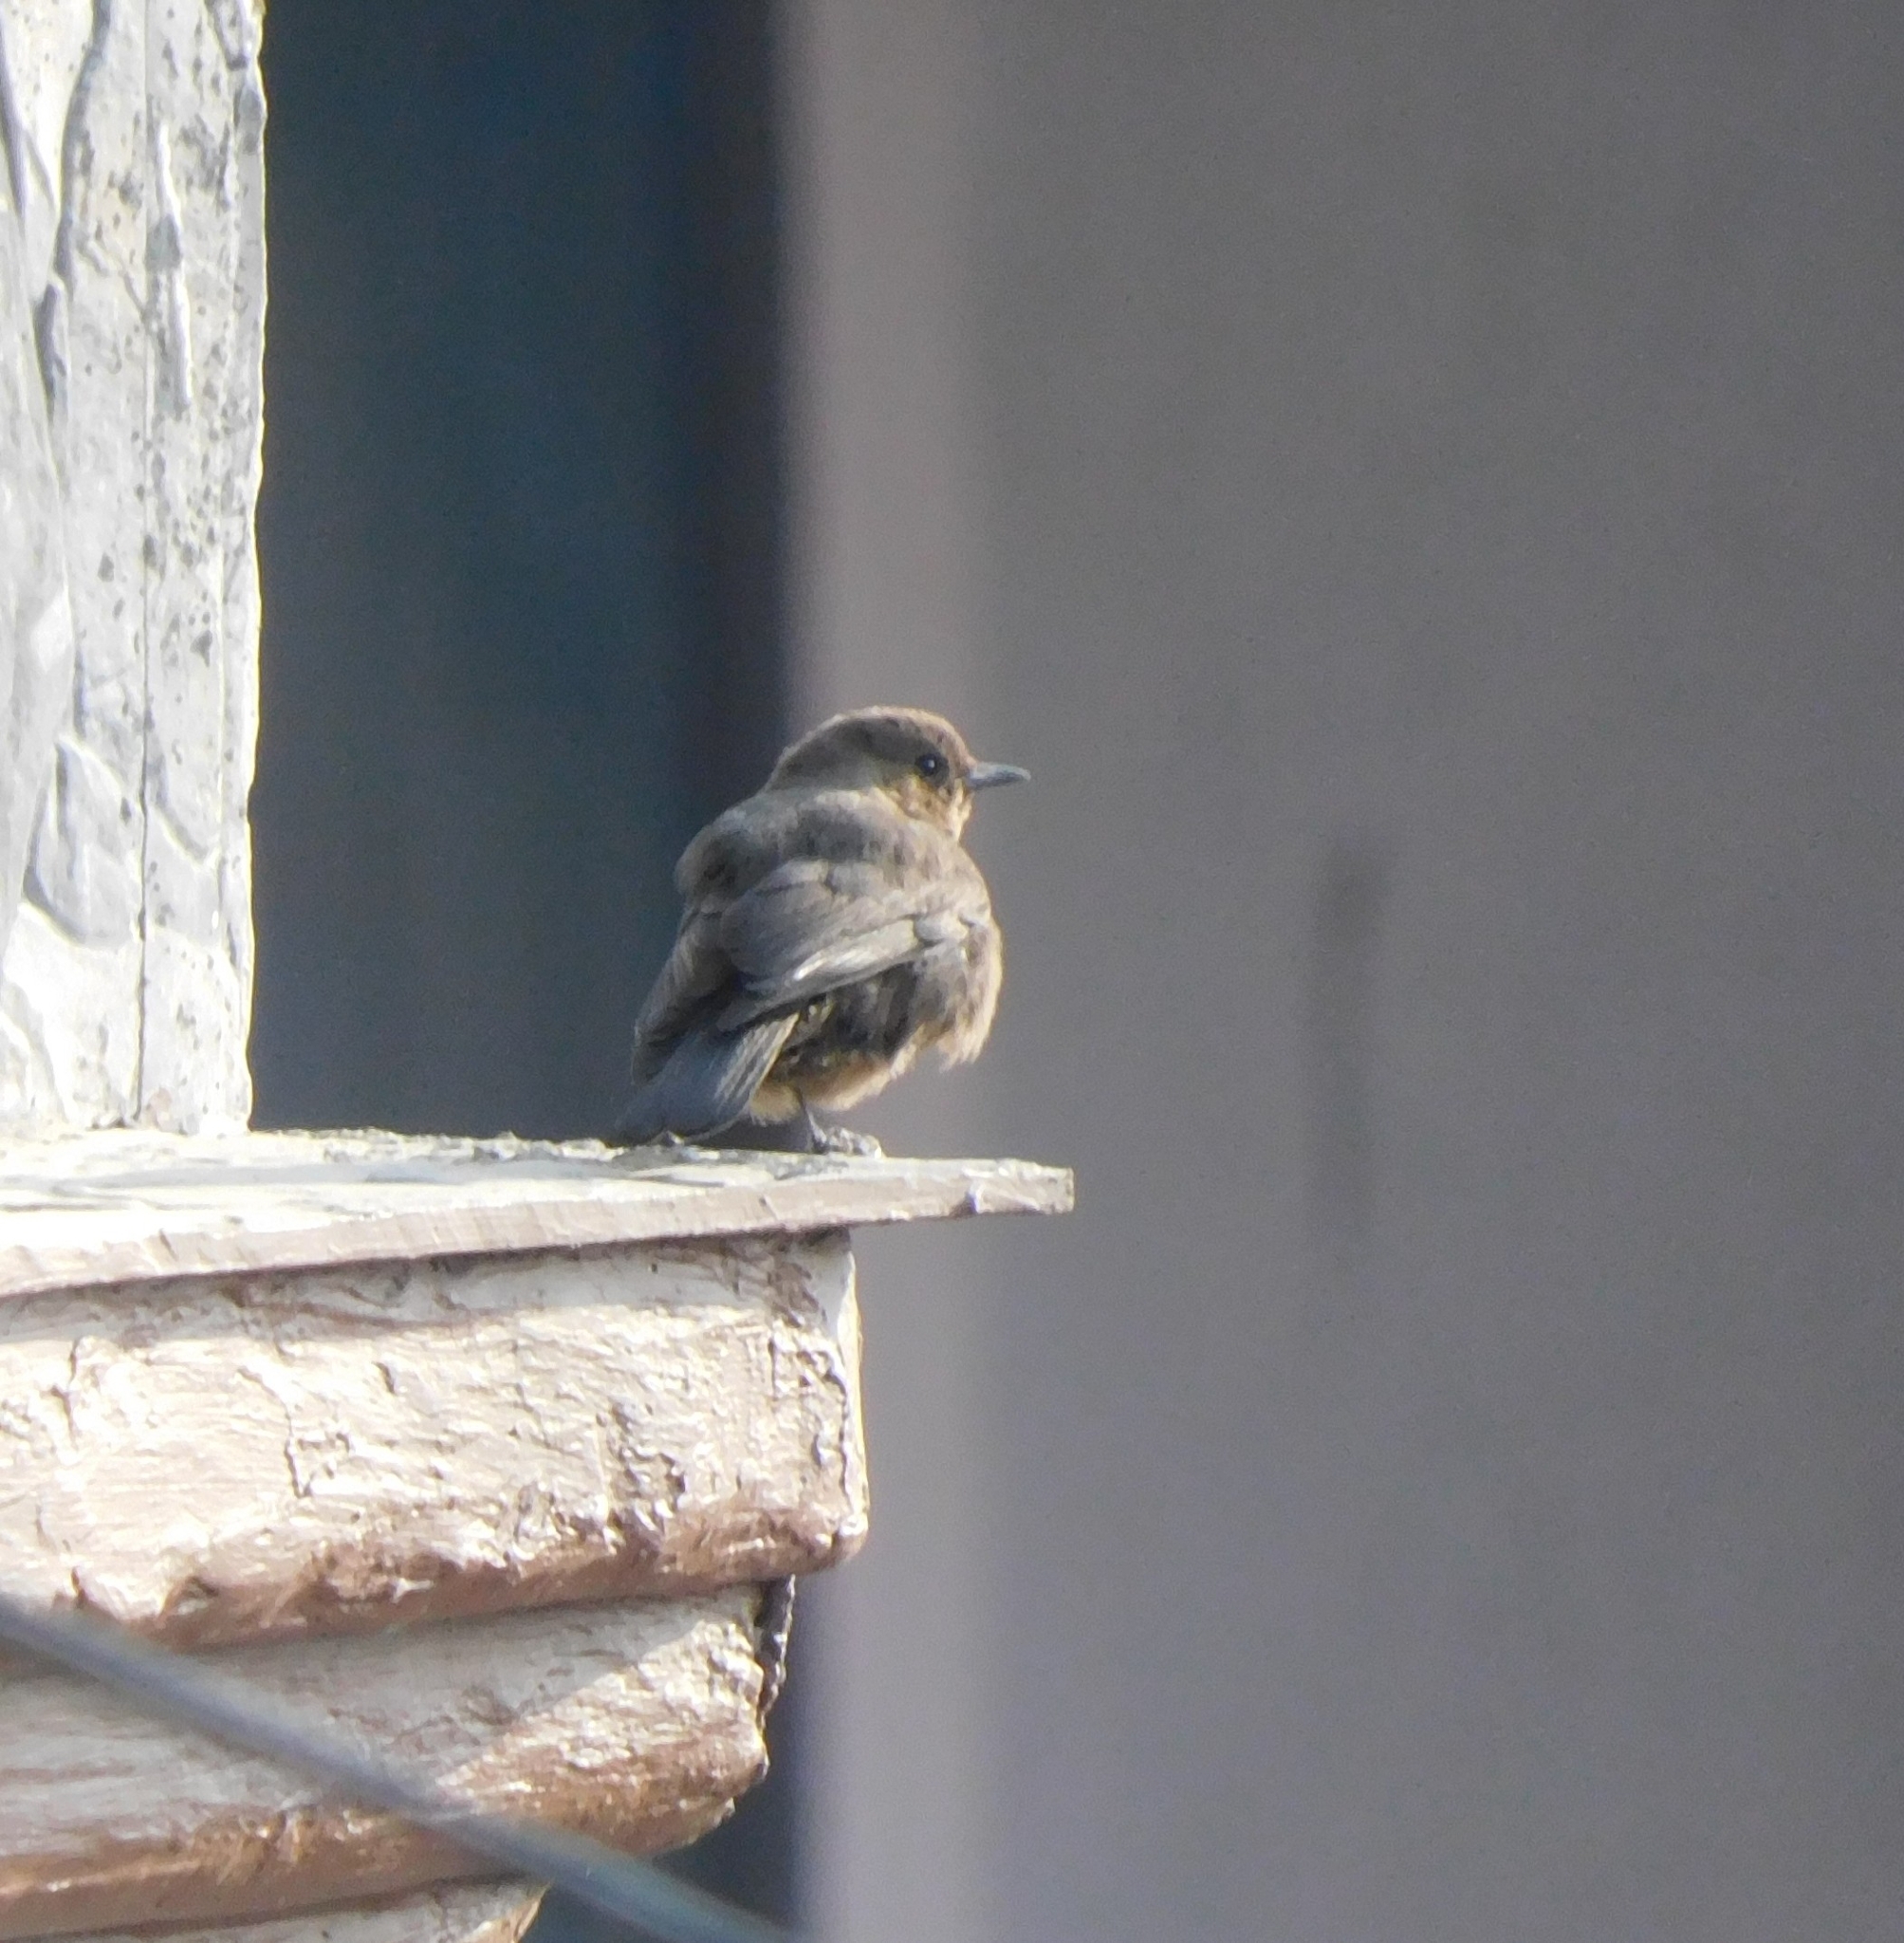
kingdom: Animalia
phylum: Chordata
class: Aves
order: Passeriformes
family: Muscicapidae
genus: Oenanthe
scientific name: Oenanthe fusca
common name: Brown rock chat
